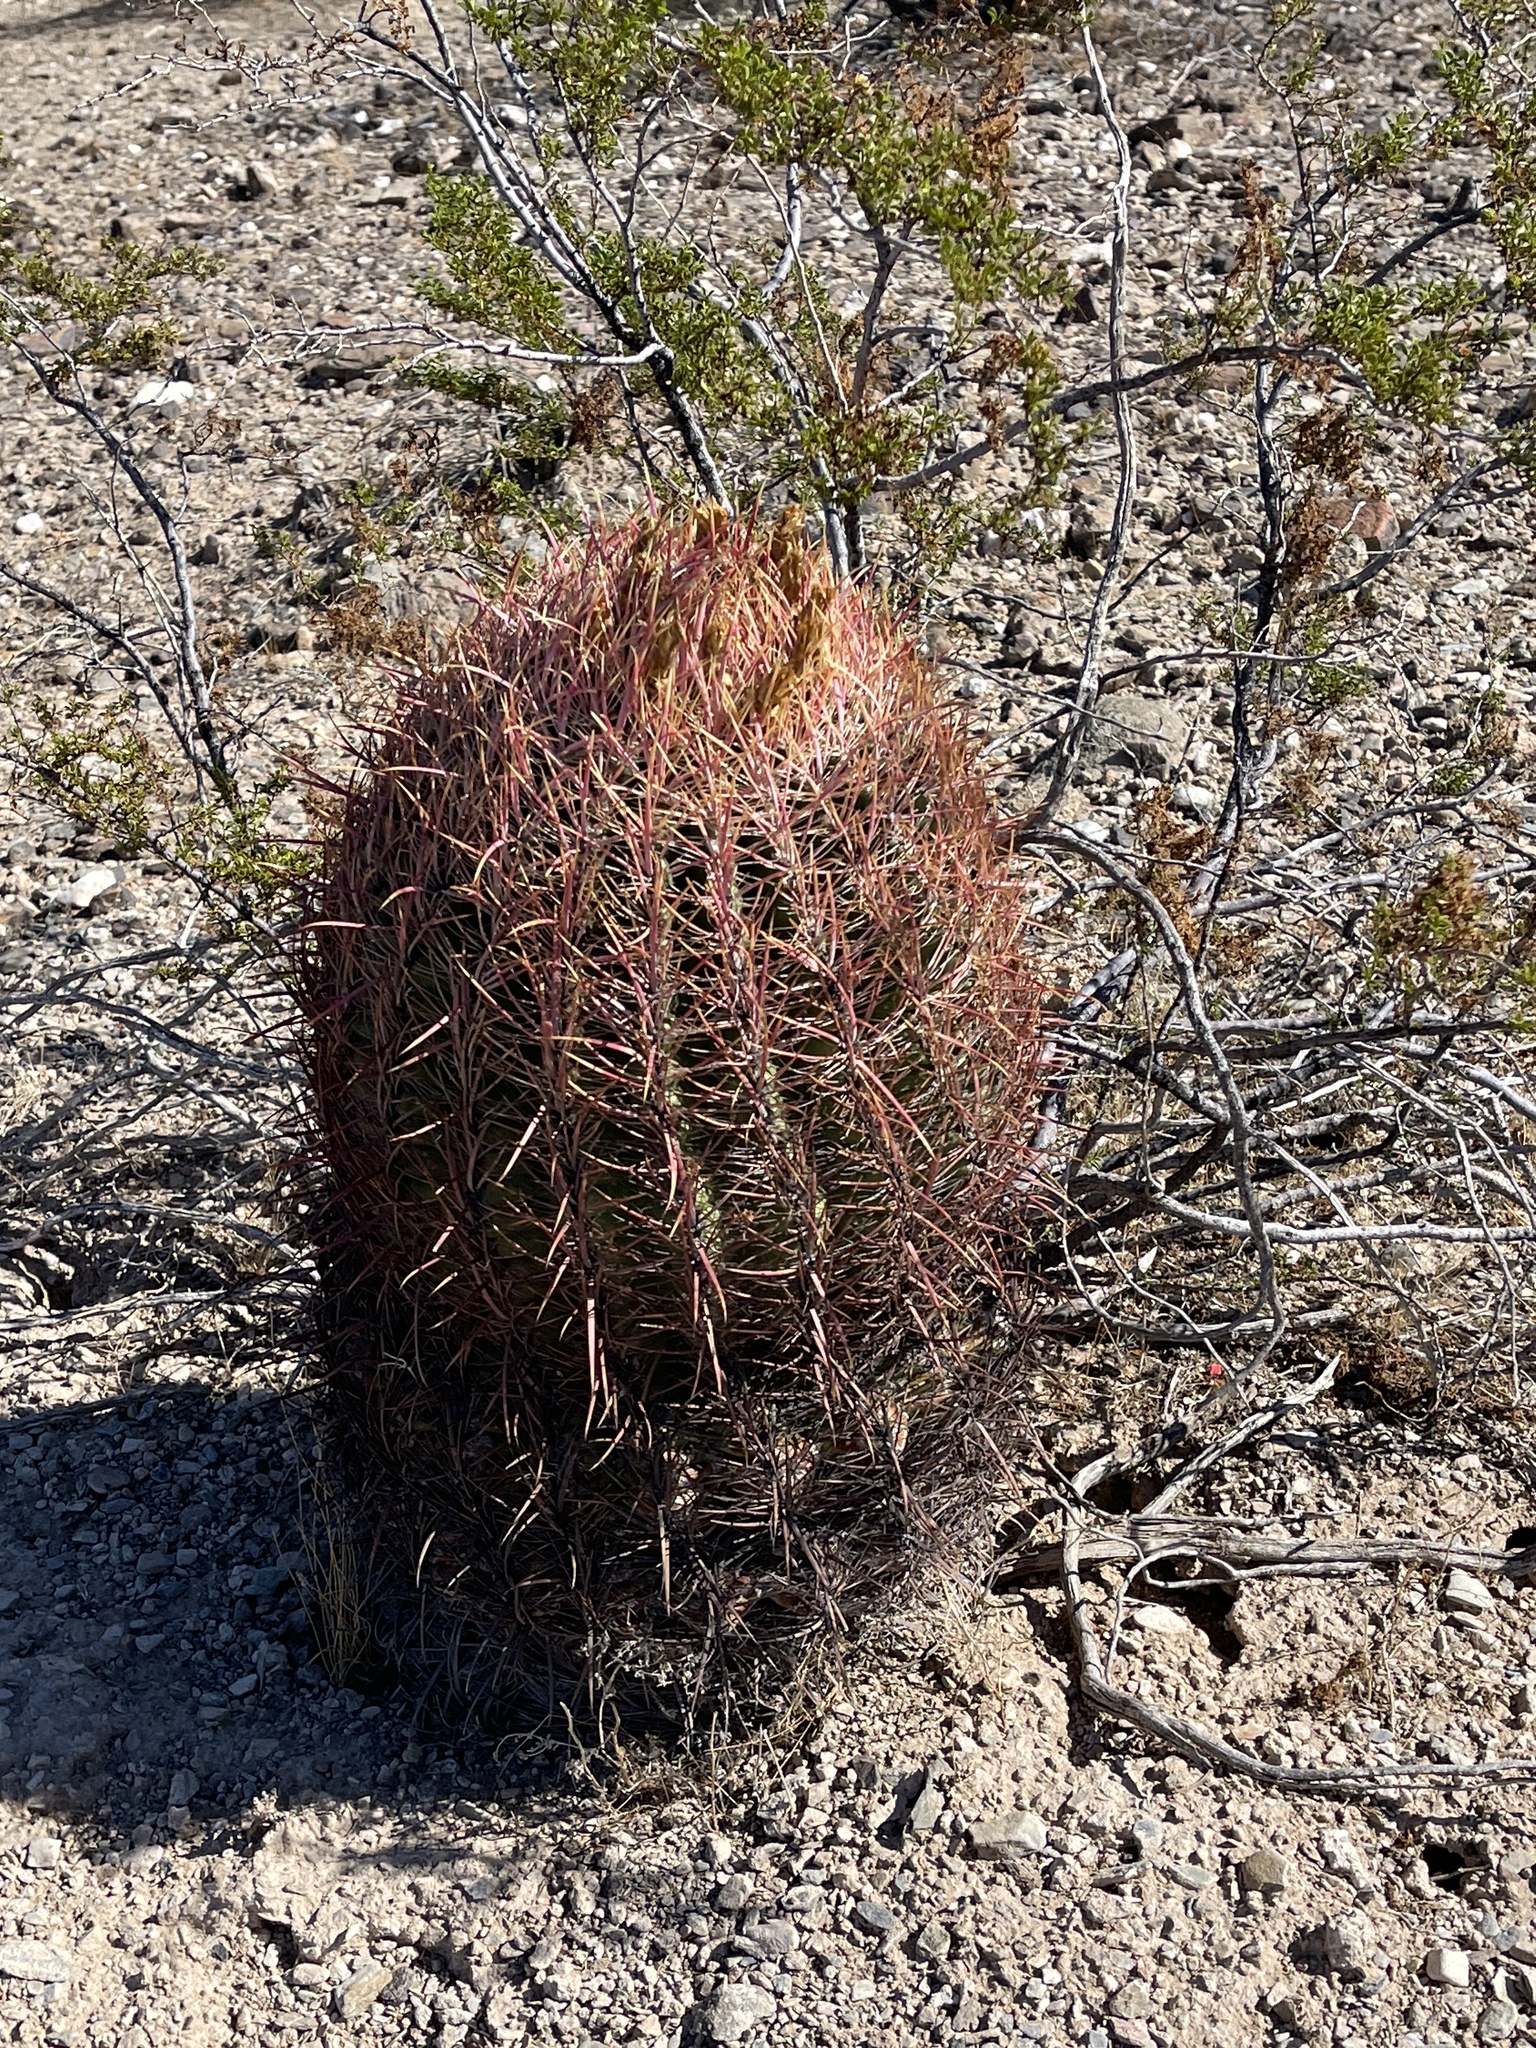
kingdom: Plantae
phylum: Tracheophyta
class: Magnoliopsida
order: Caryophyllales
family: Cactaceae
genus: Ferocactus
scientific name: Ferocactus cylindraceus
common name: California barrel cactus
